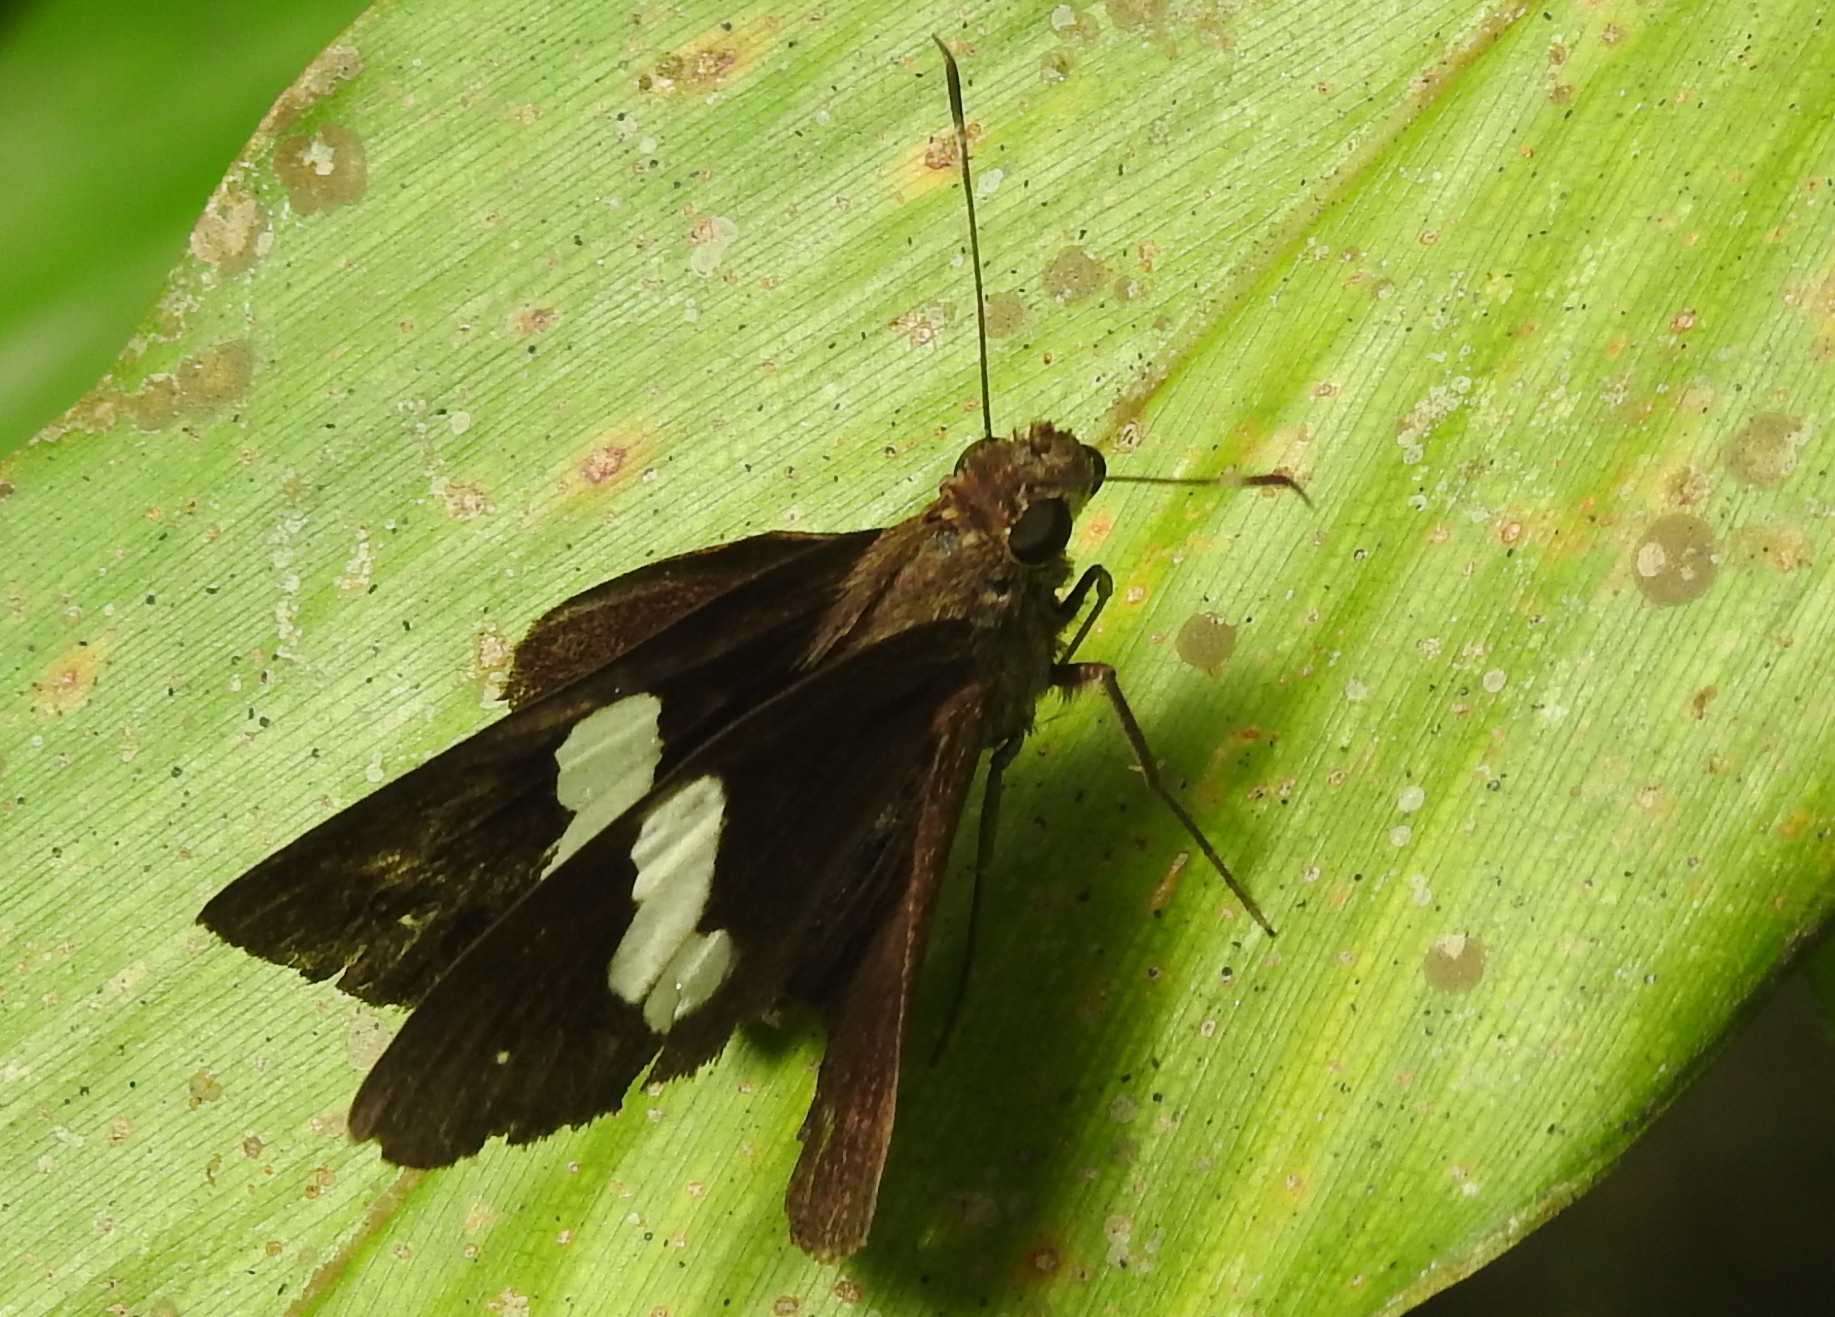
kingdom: Animalia
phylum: Arthropoda
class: Insecta
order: Lepidoptera
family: Hesperiidae
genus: Notocrypta
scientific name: Notocrypta paralysos
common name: Common banded demon
